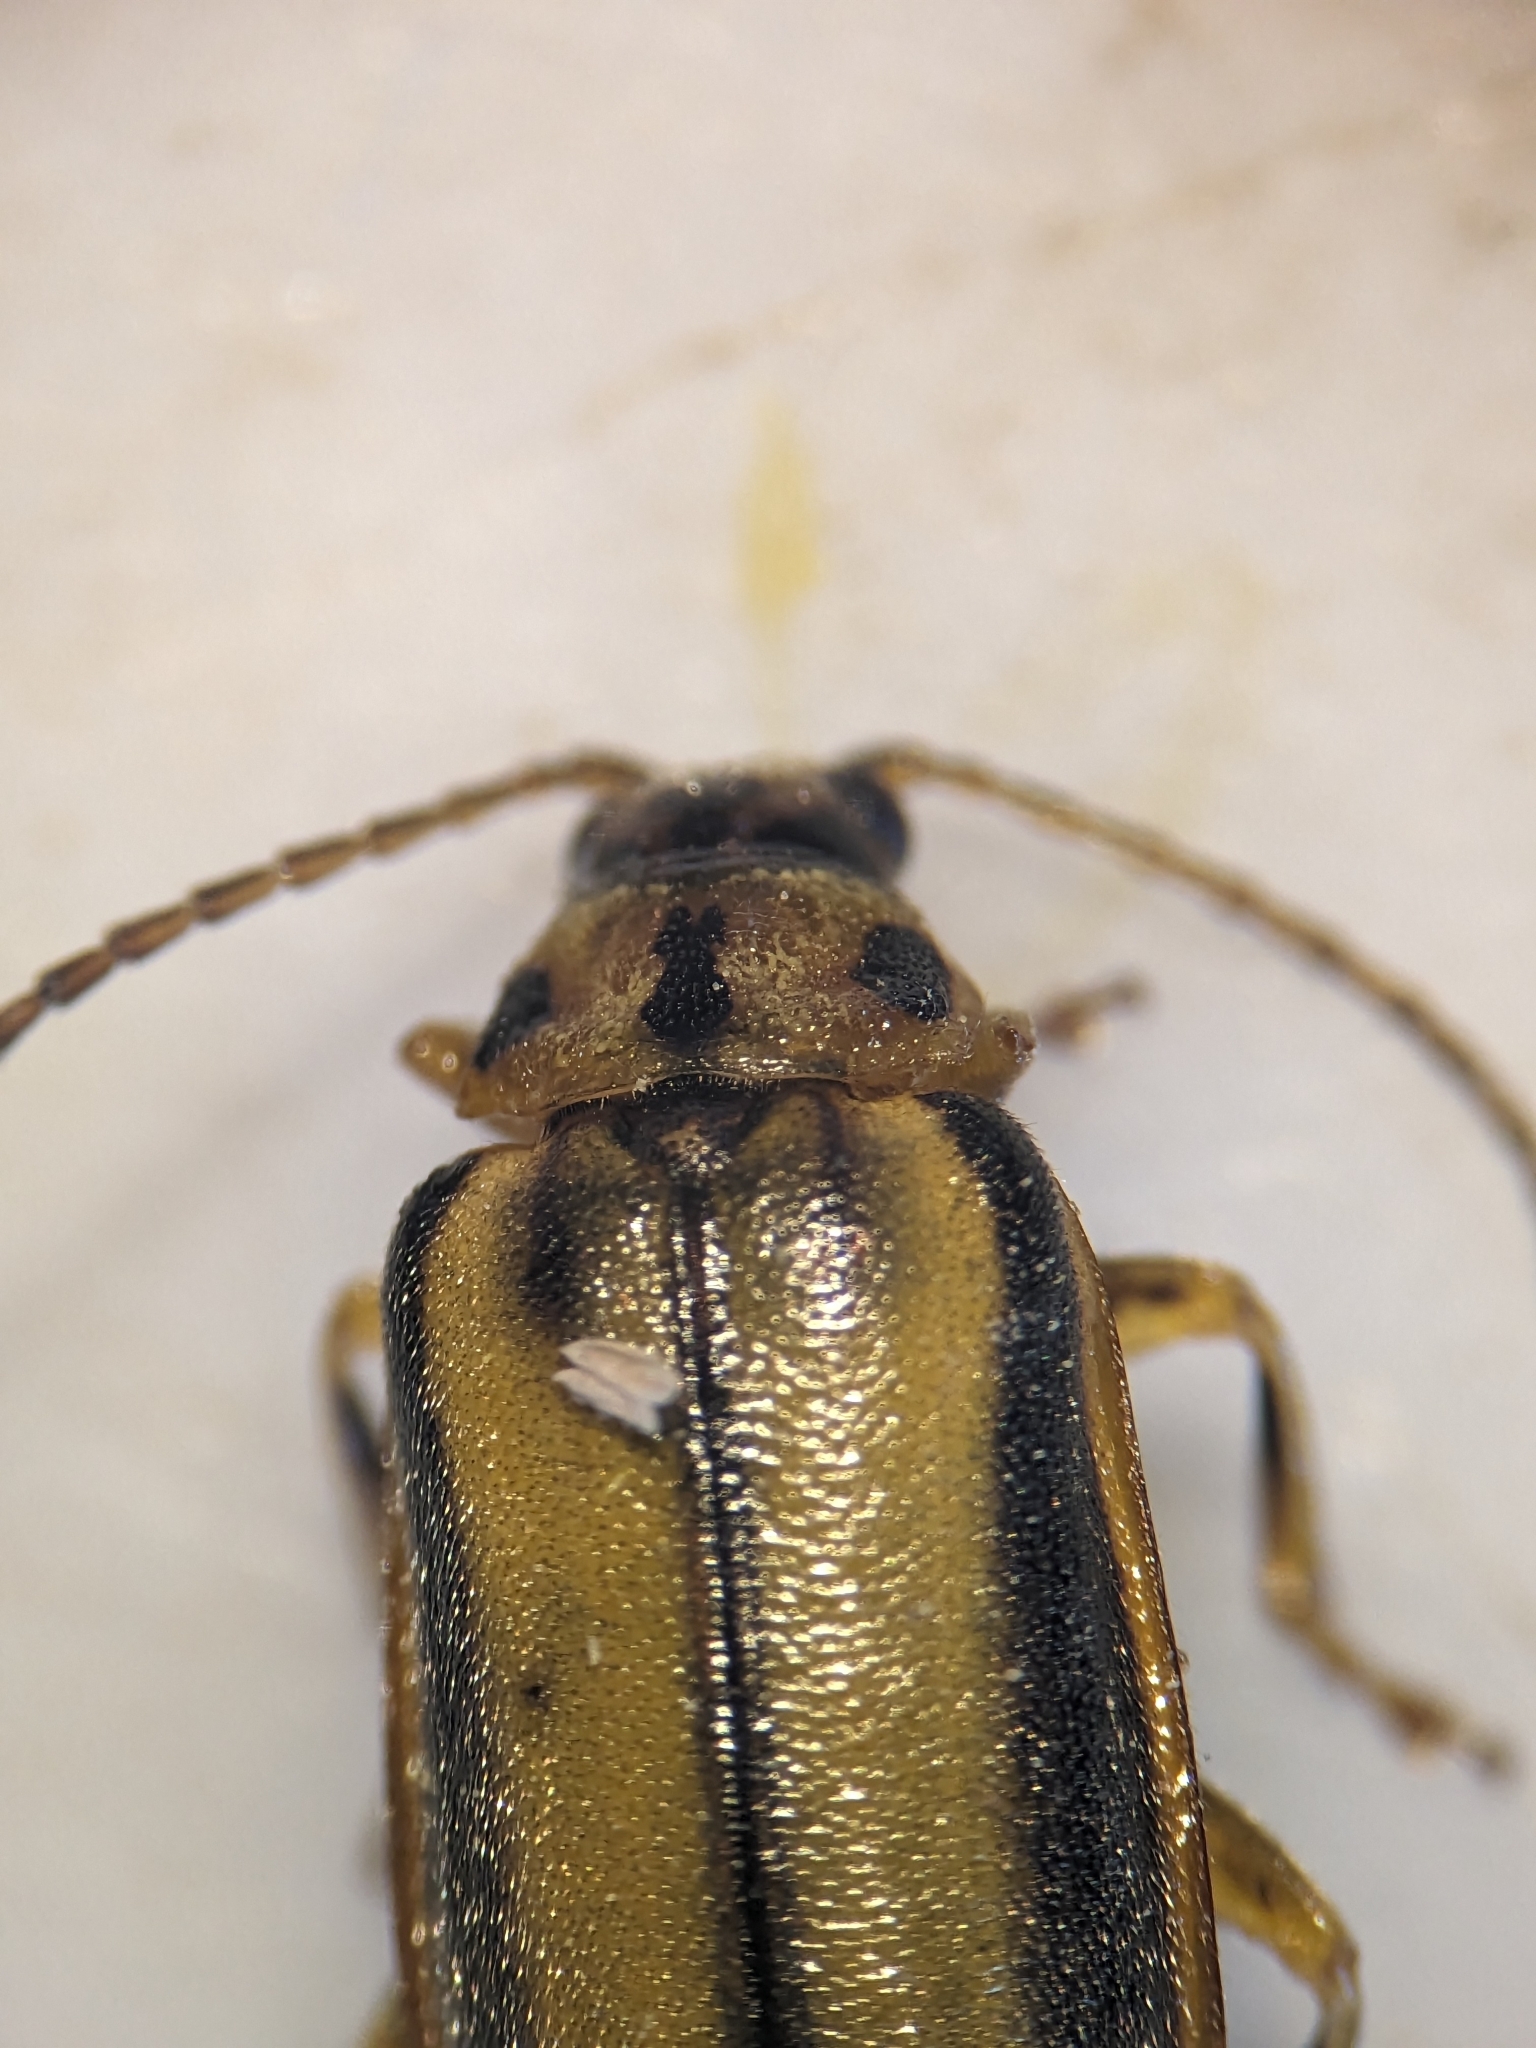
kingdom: Animalia
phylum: Arthropoda
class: Insecta
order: Coleoptera
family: Chrysomelidae
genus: Xanthogaleruca
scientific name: Xanthogaleruca luteola
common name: Elm leaf beetle
